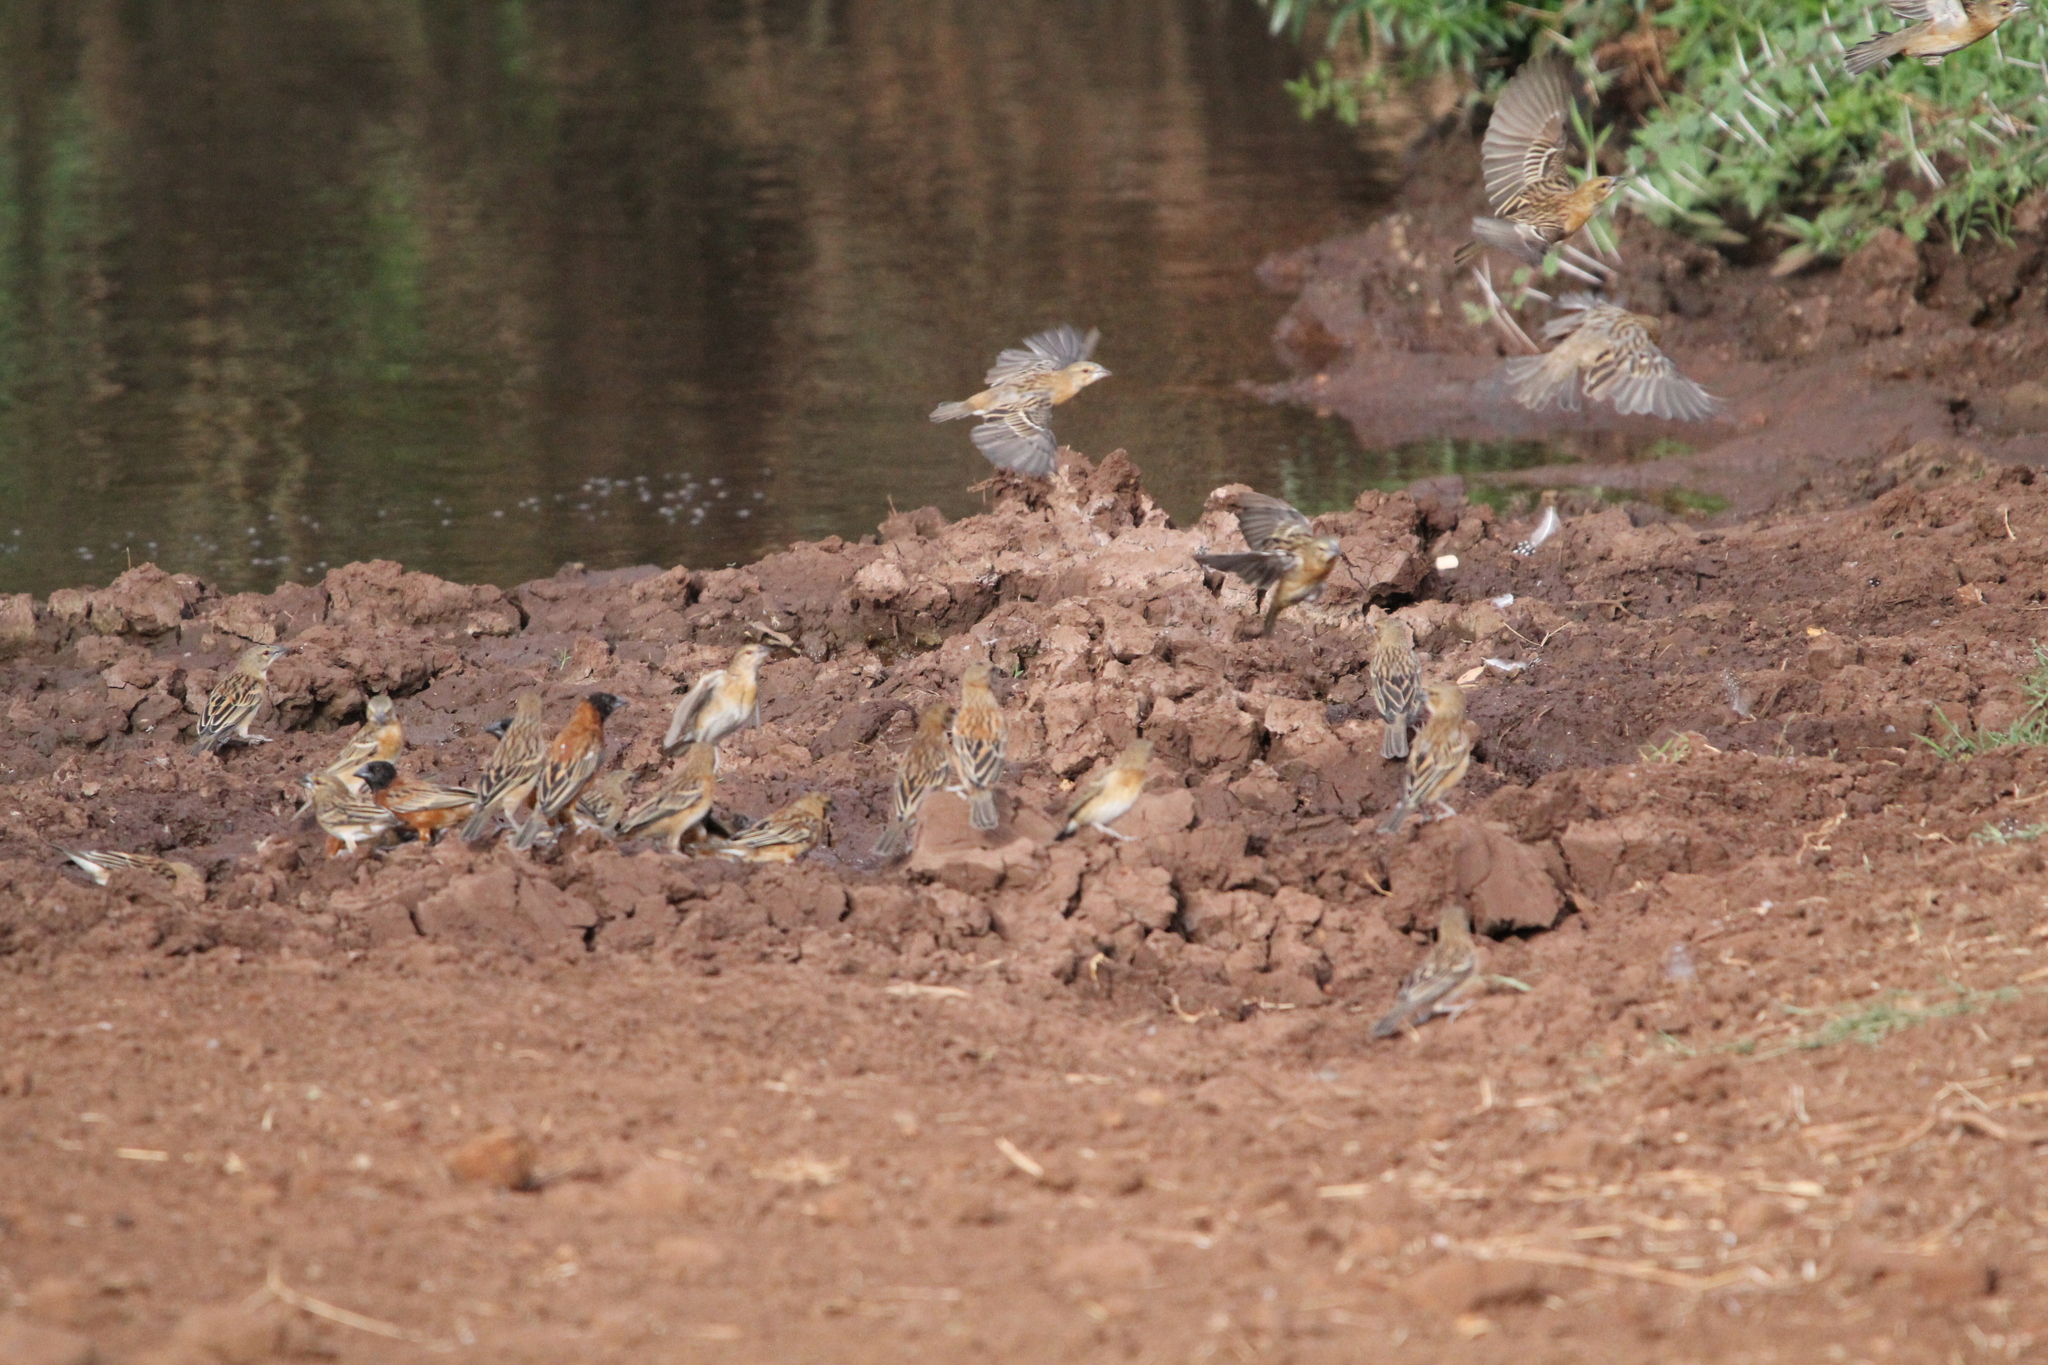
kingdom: Animalia
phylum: Chordata
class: Aves
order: Passeriformes
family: Ploceidae
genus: Ploceus
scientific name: Ploceus rubiginosus
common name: Chestnut weaver
